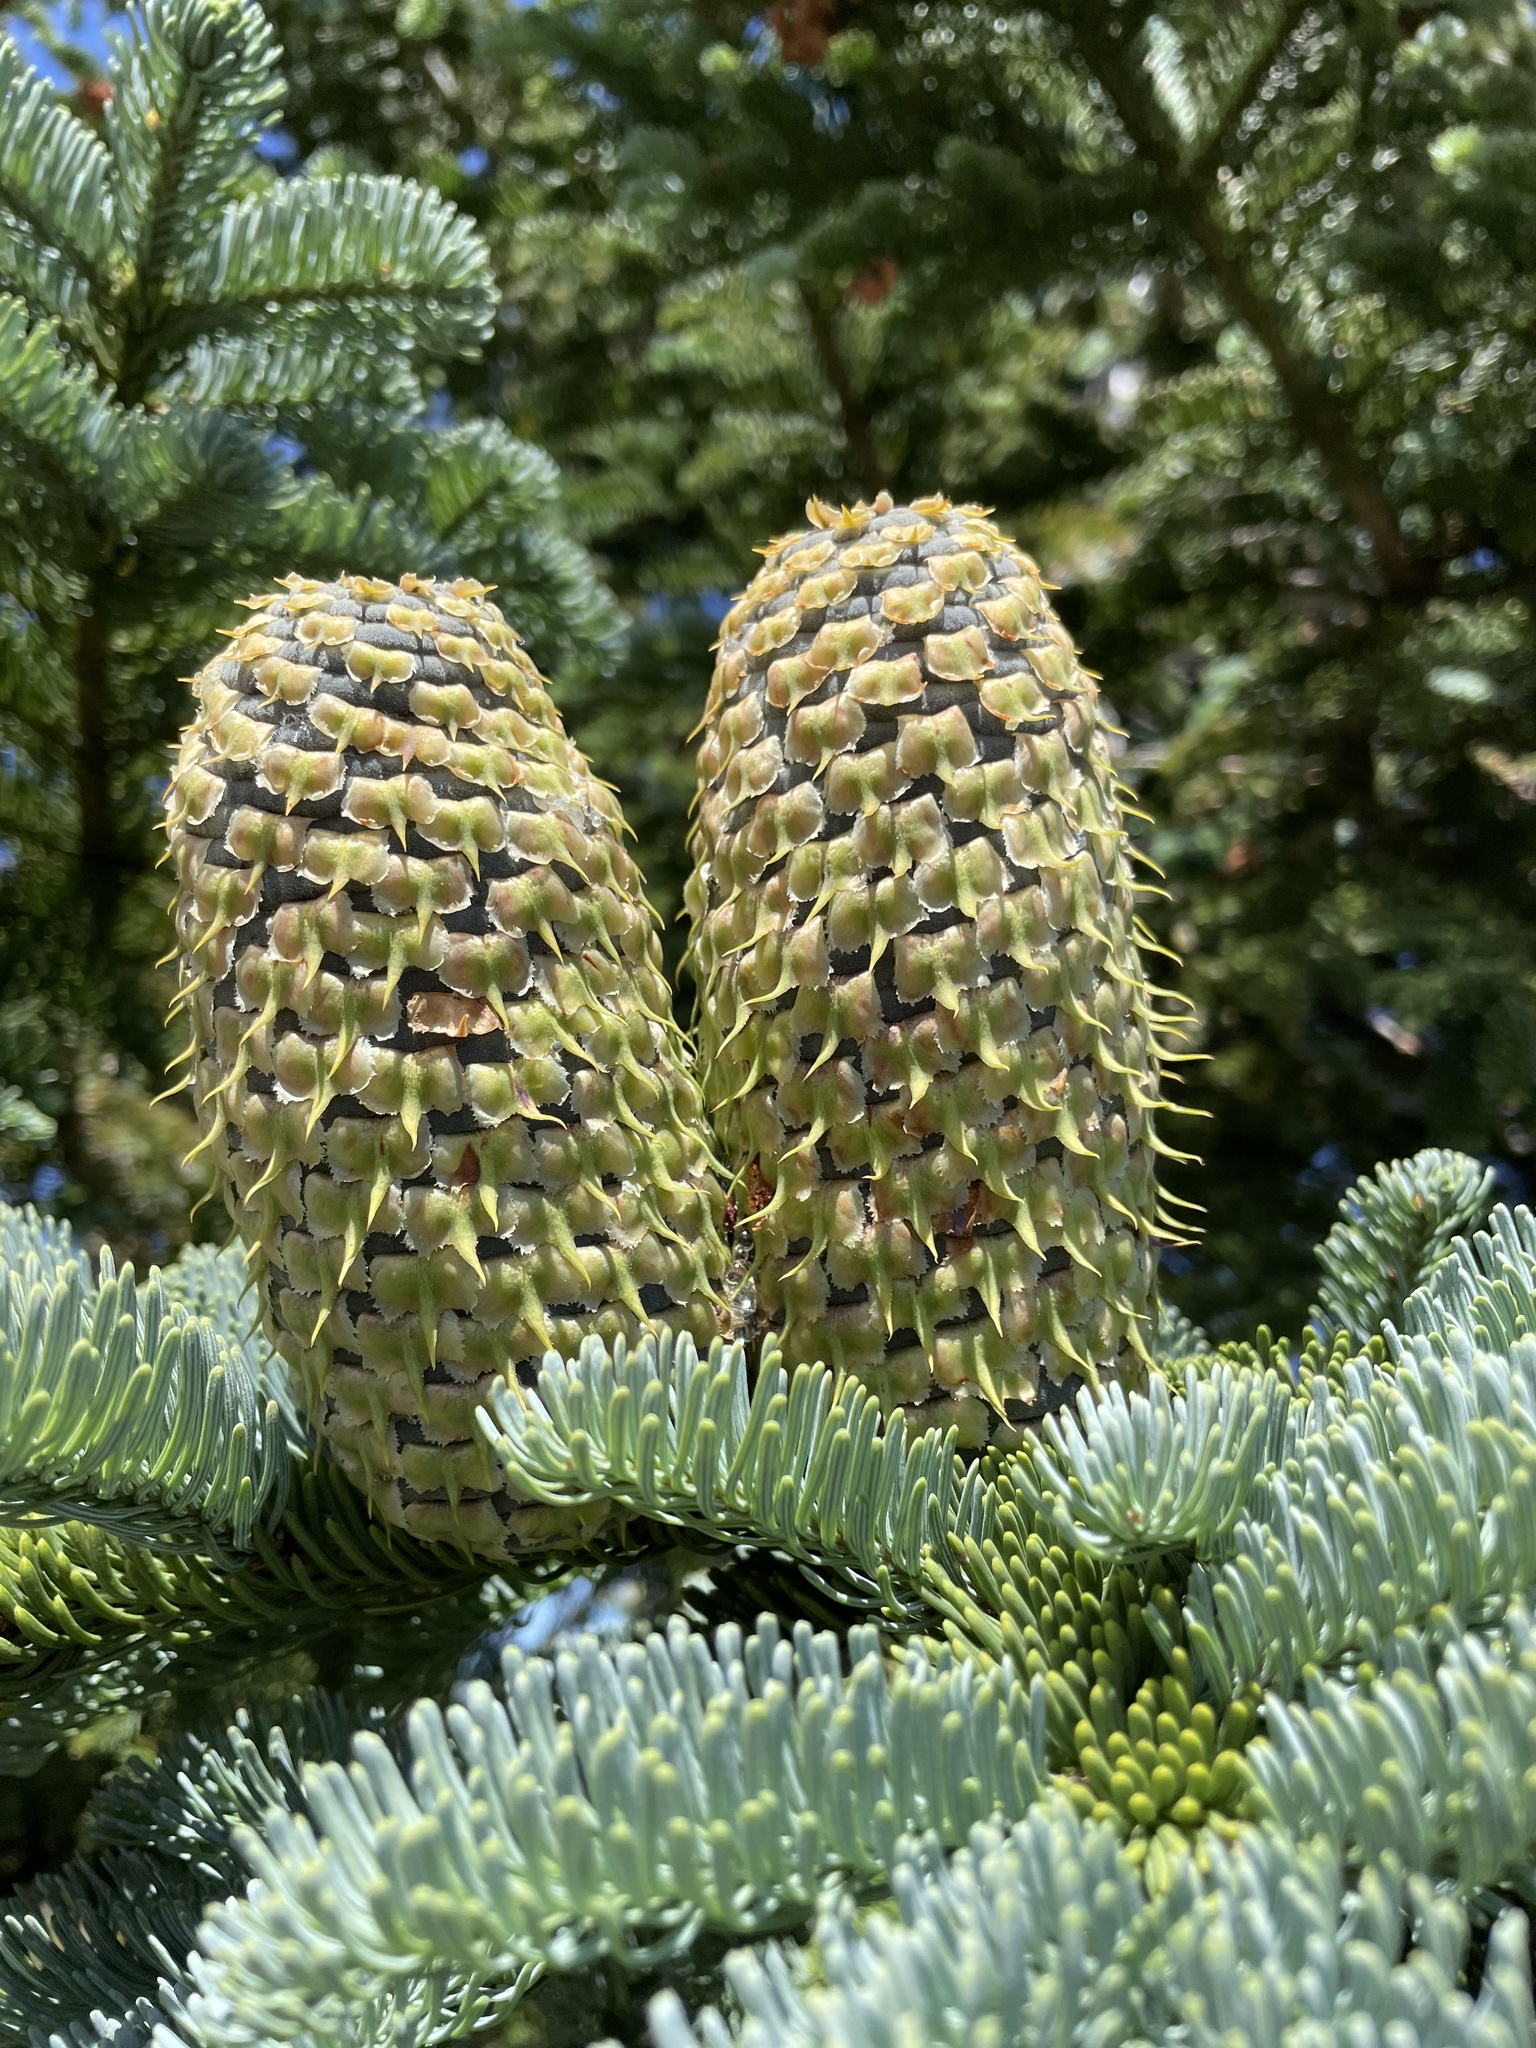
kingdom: Plantae
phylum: Tracheophyta
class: Pinopsida
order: Pinales
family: Pinaceae
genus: Abies
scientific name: Abies procera
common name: Noble fir
